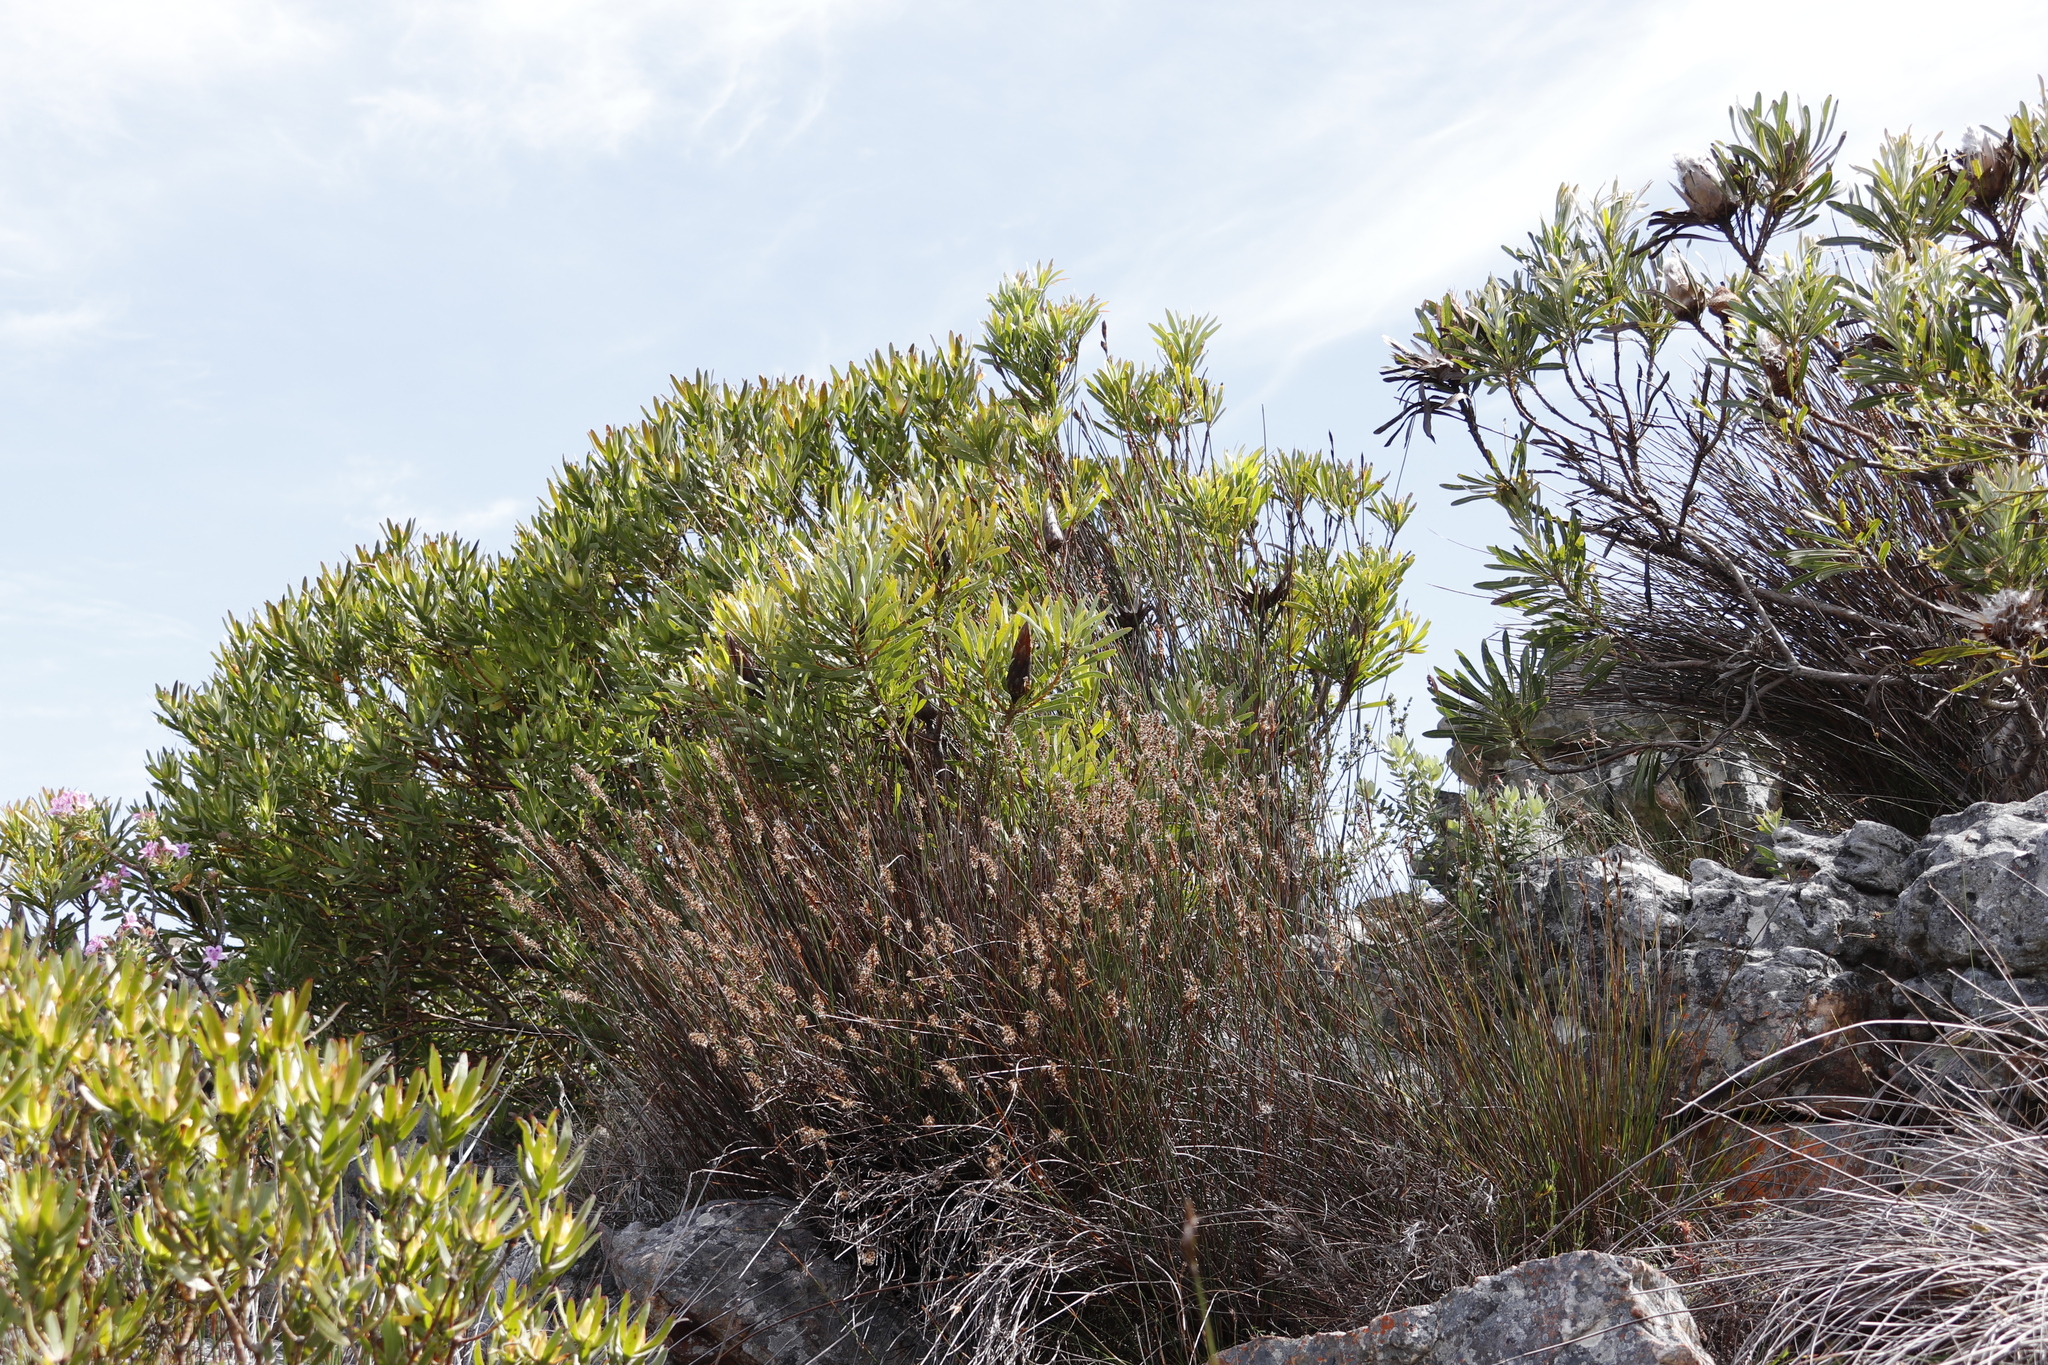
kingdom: Plantae
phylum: Tracheophyta
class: Magnoliopsida
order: Proteales
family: Proteaceae
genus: Protea
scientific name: Protea repens
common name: Sugarbush
